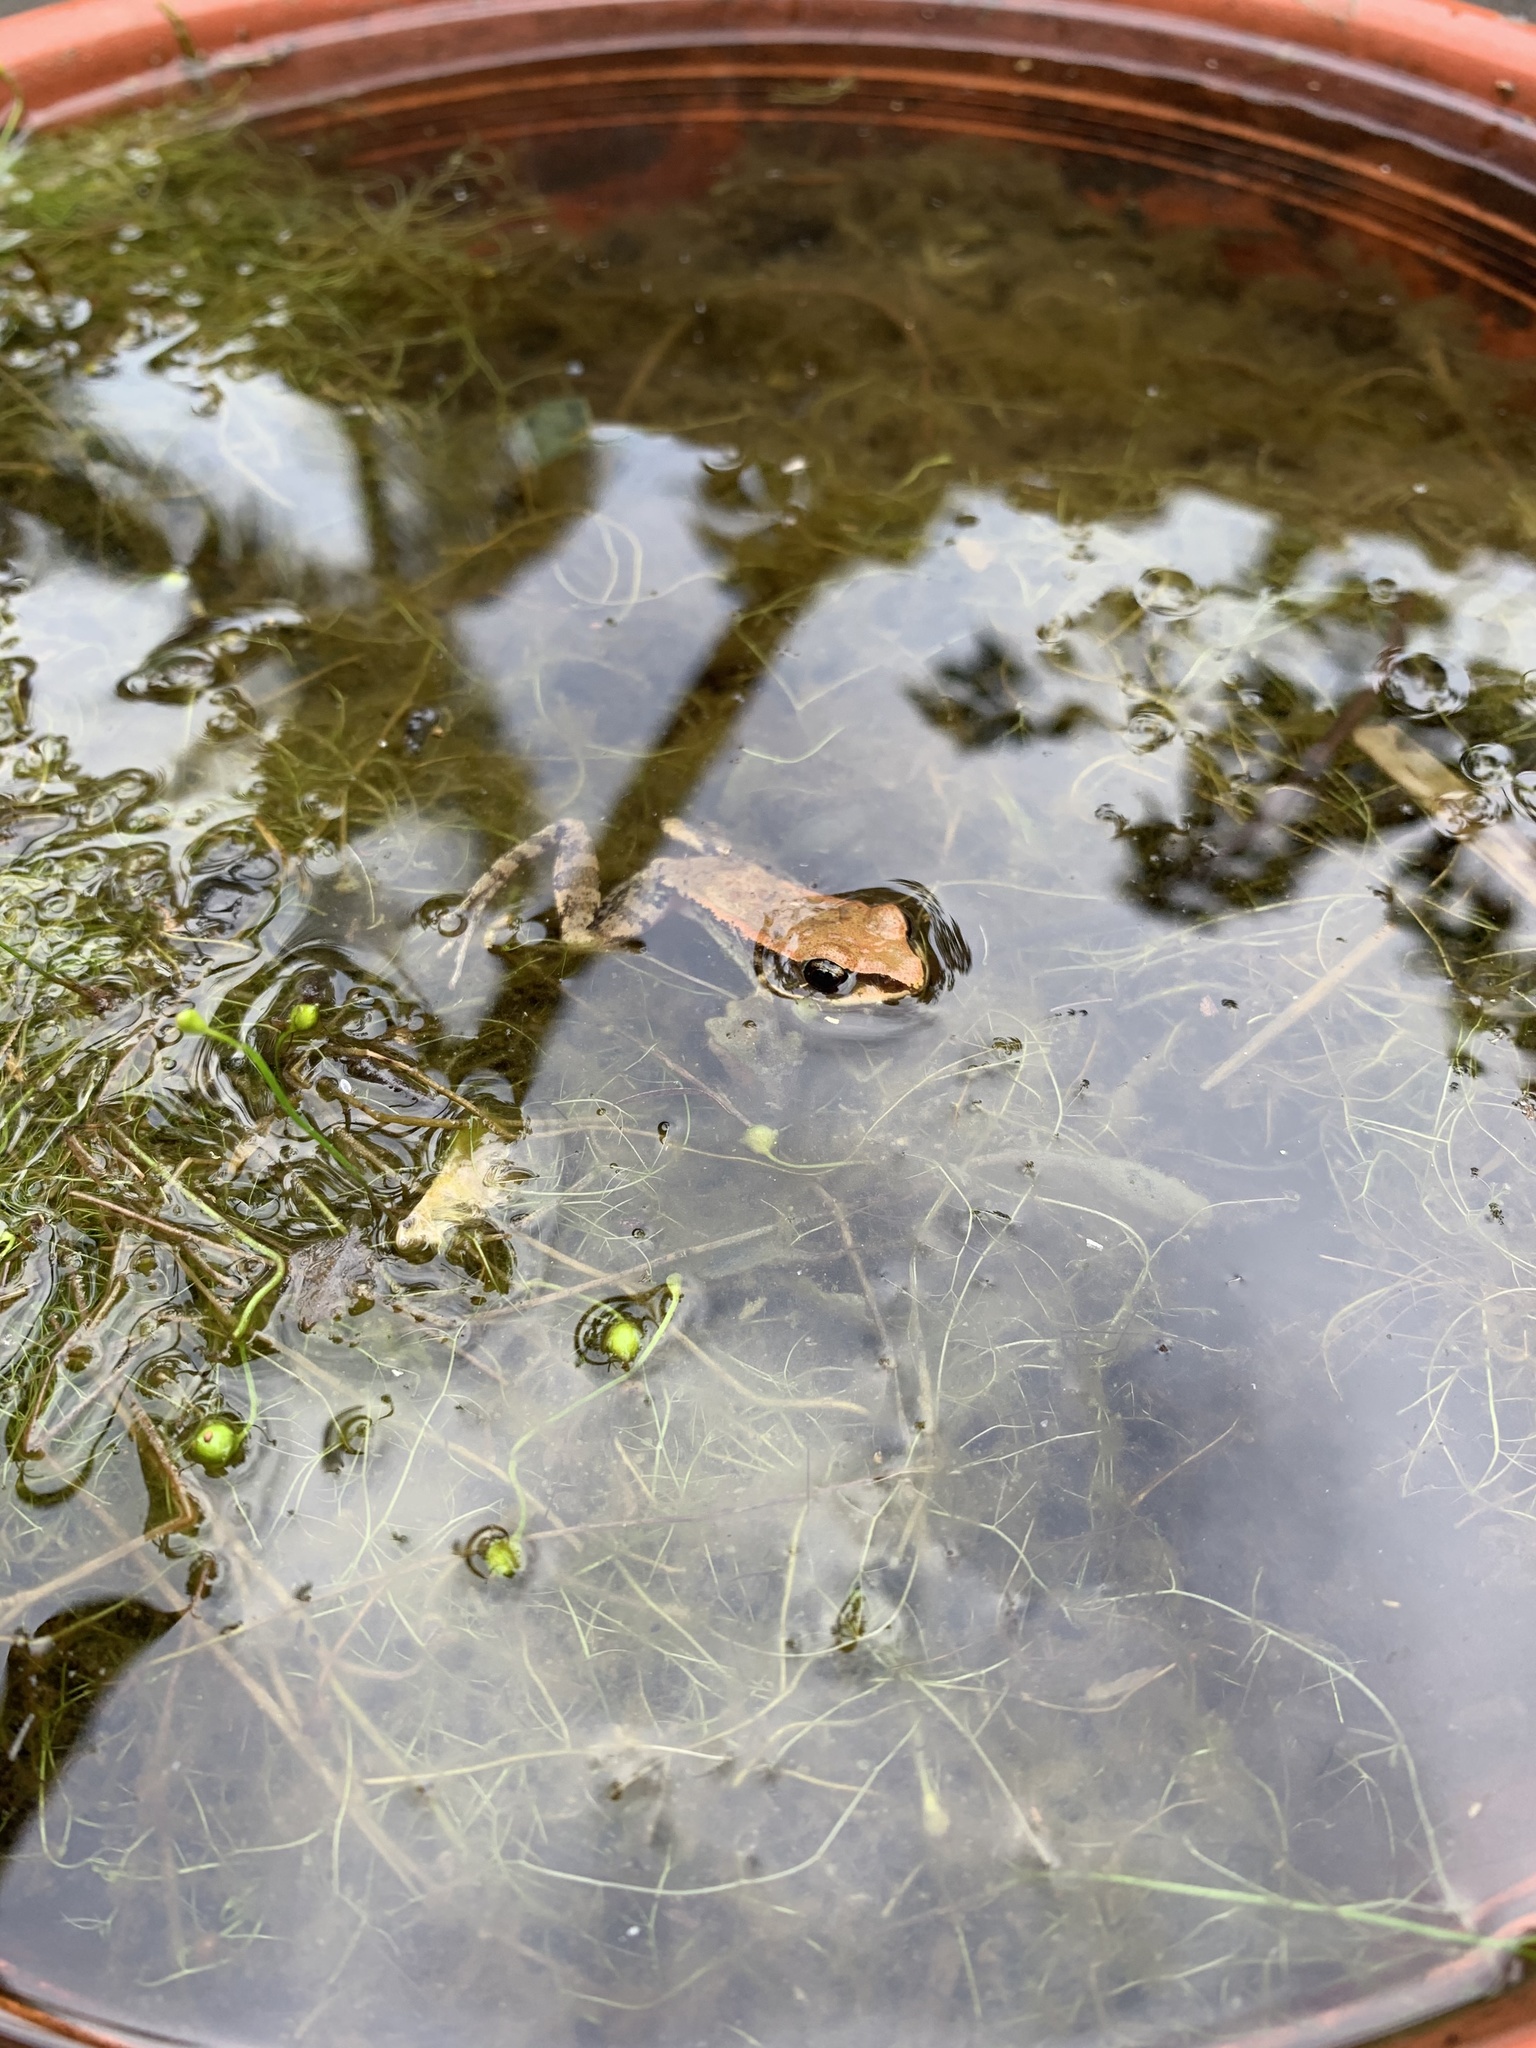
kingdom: Animalia
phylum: Chordata
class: Amphibia
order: Anura
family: Ranidae
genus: Hylarana
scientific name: Hylarana latouchii
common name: Broad-folded frog
